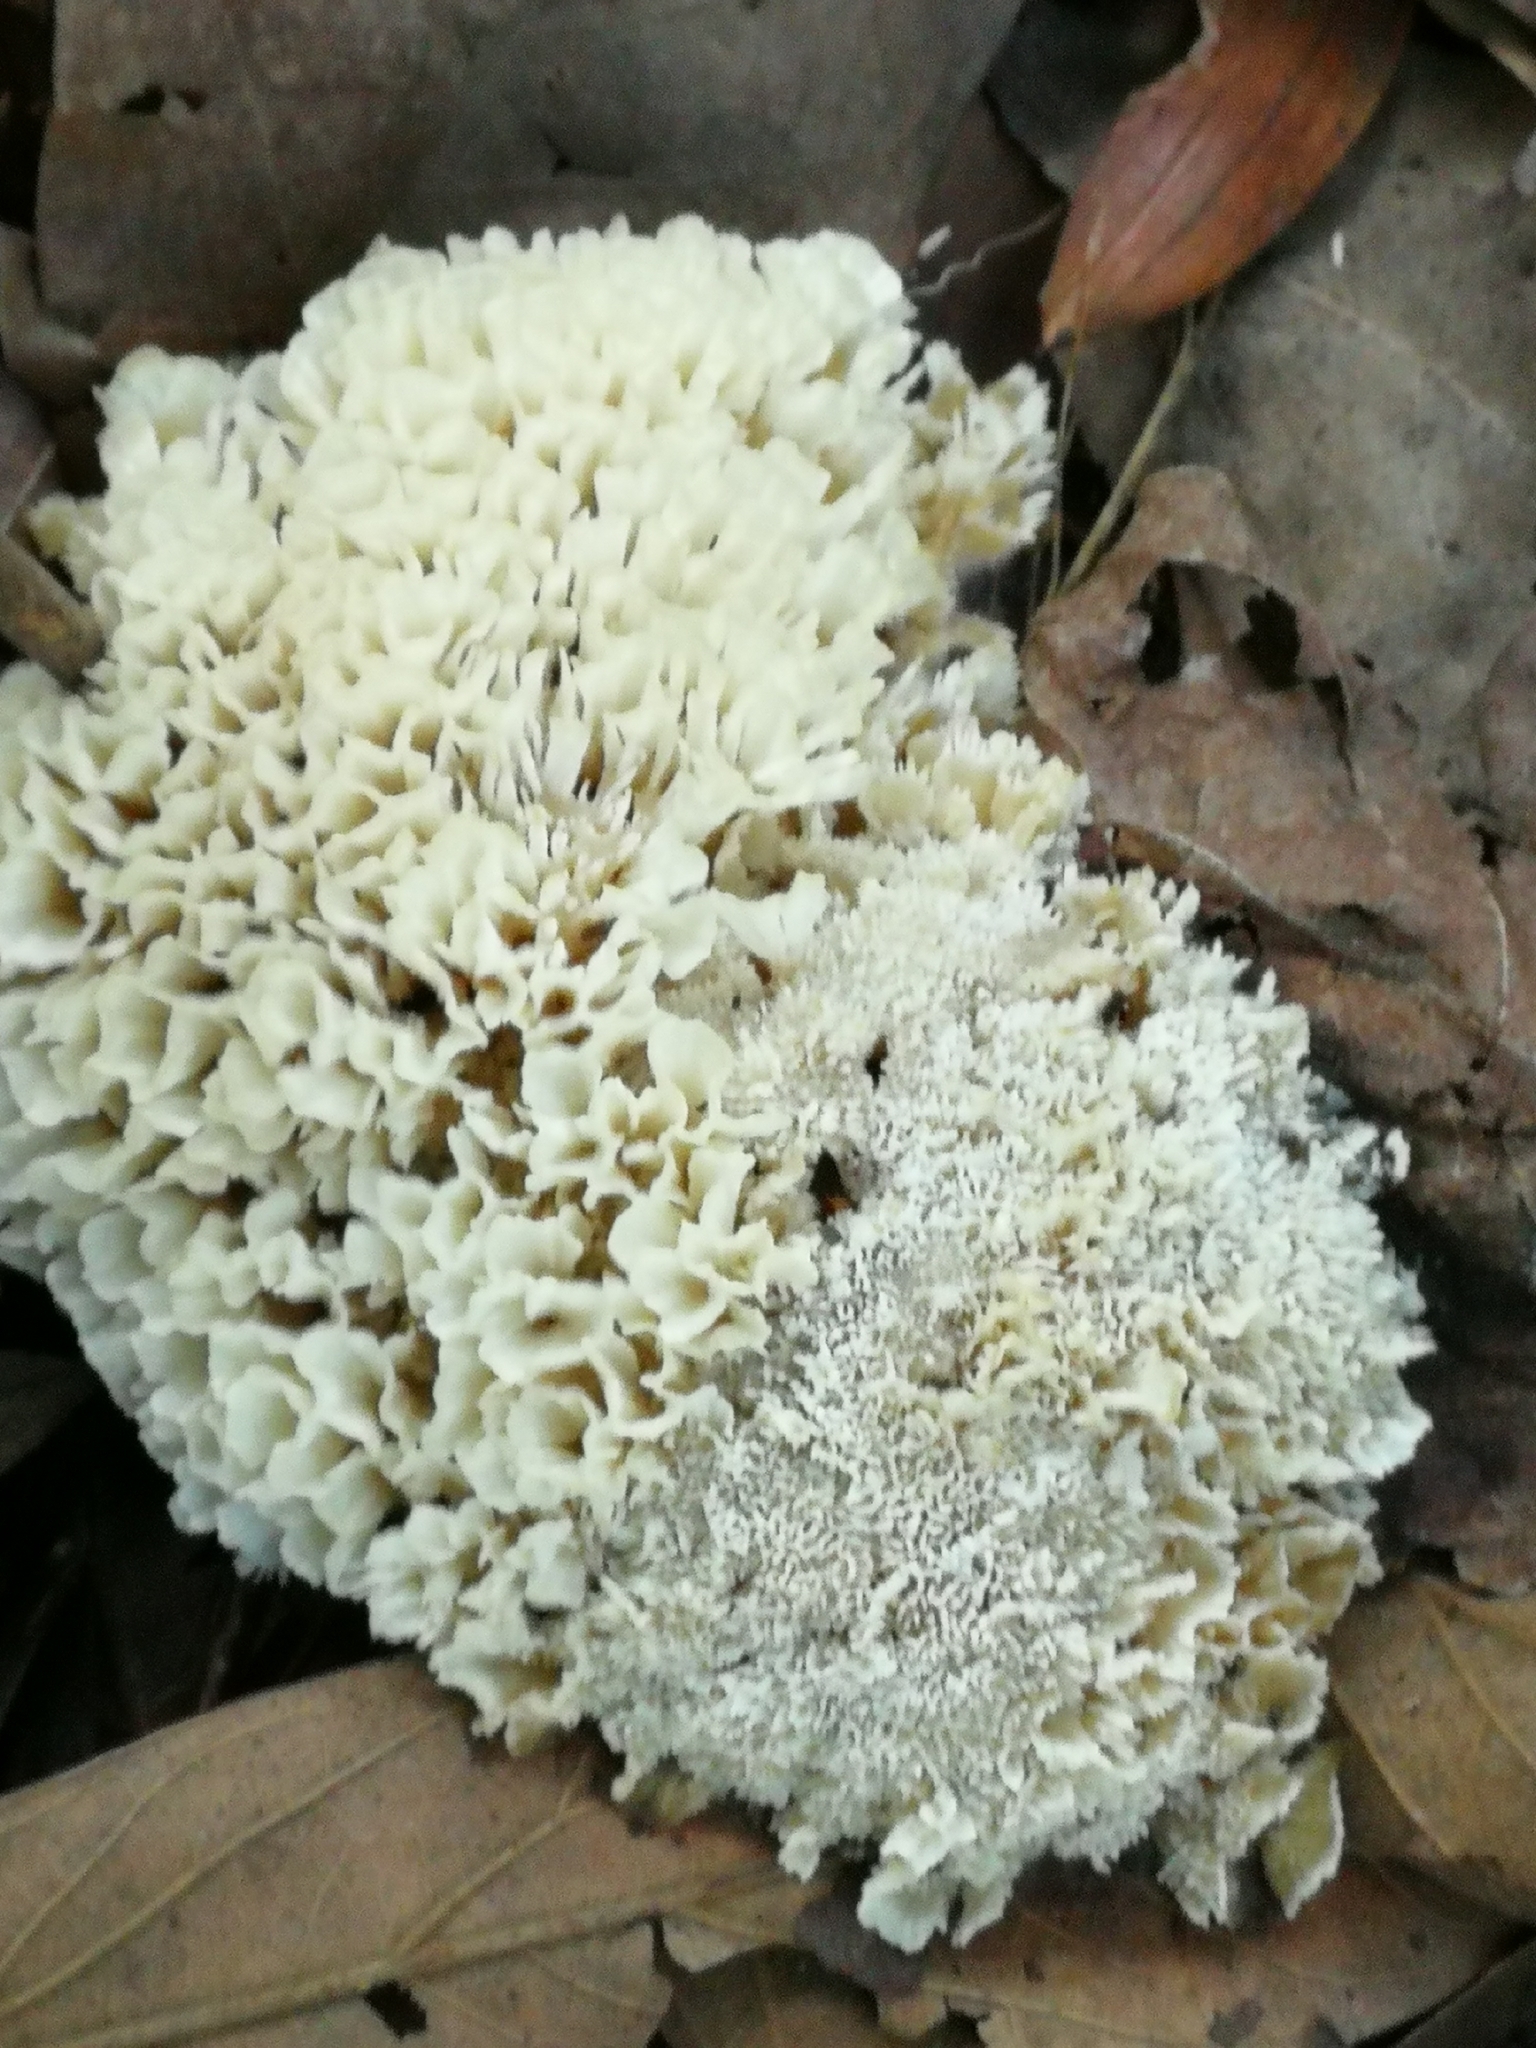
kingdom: Fungi
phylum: Basidiomycota
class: Agaricomycetes
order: Polyporales
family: Irpicaceae
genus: Irpex
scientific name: Irpex rosettiformis
